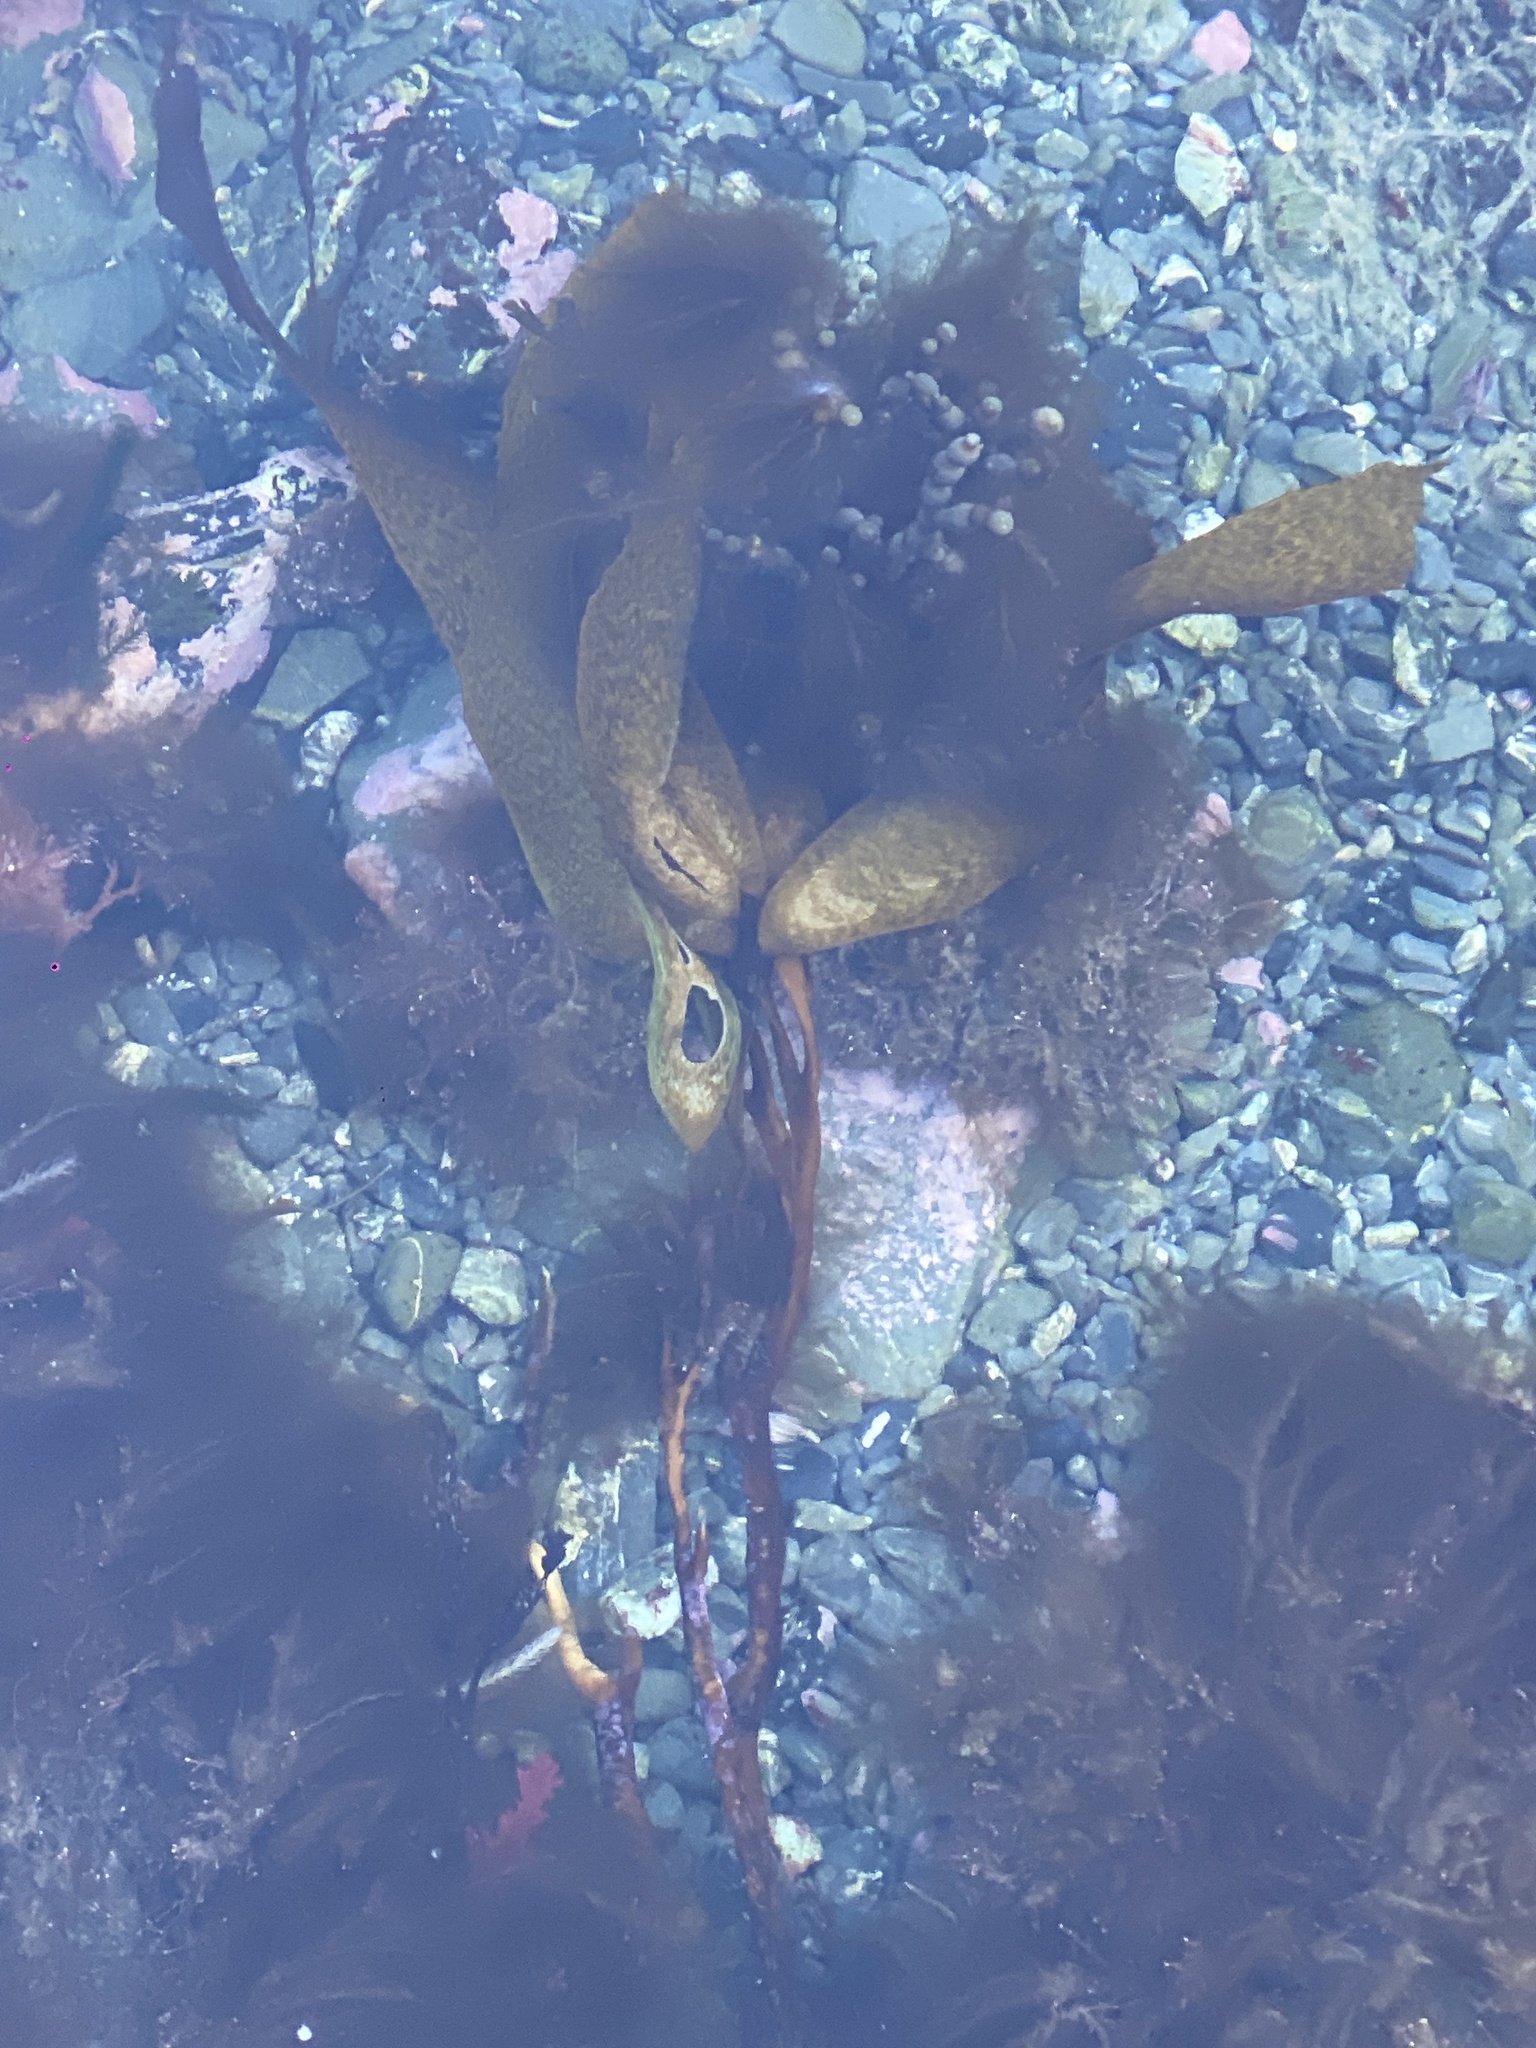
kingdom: Chromista
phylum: Ochrophyta
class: Phaeophyceae
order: Laminariales
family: Lessoniaceae
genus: Lessonia
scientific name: Lessonia variegata
